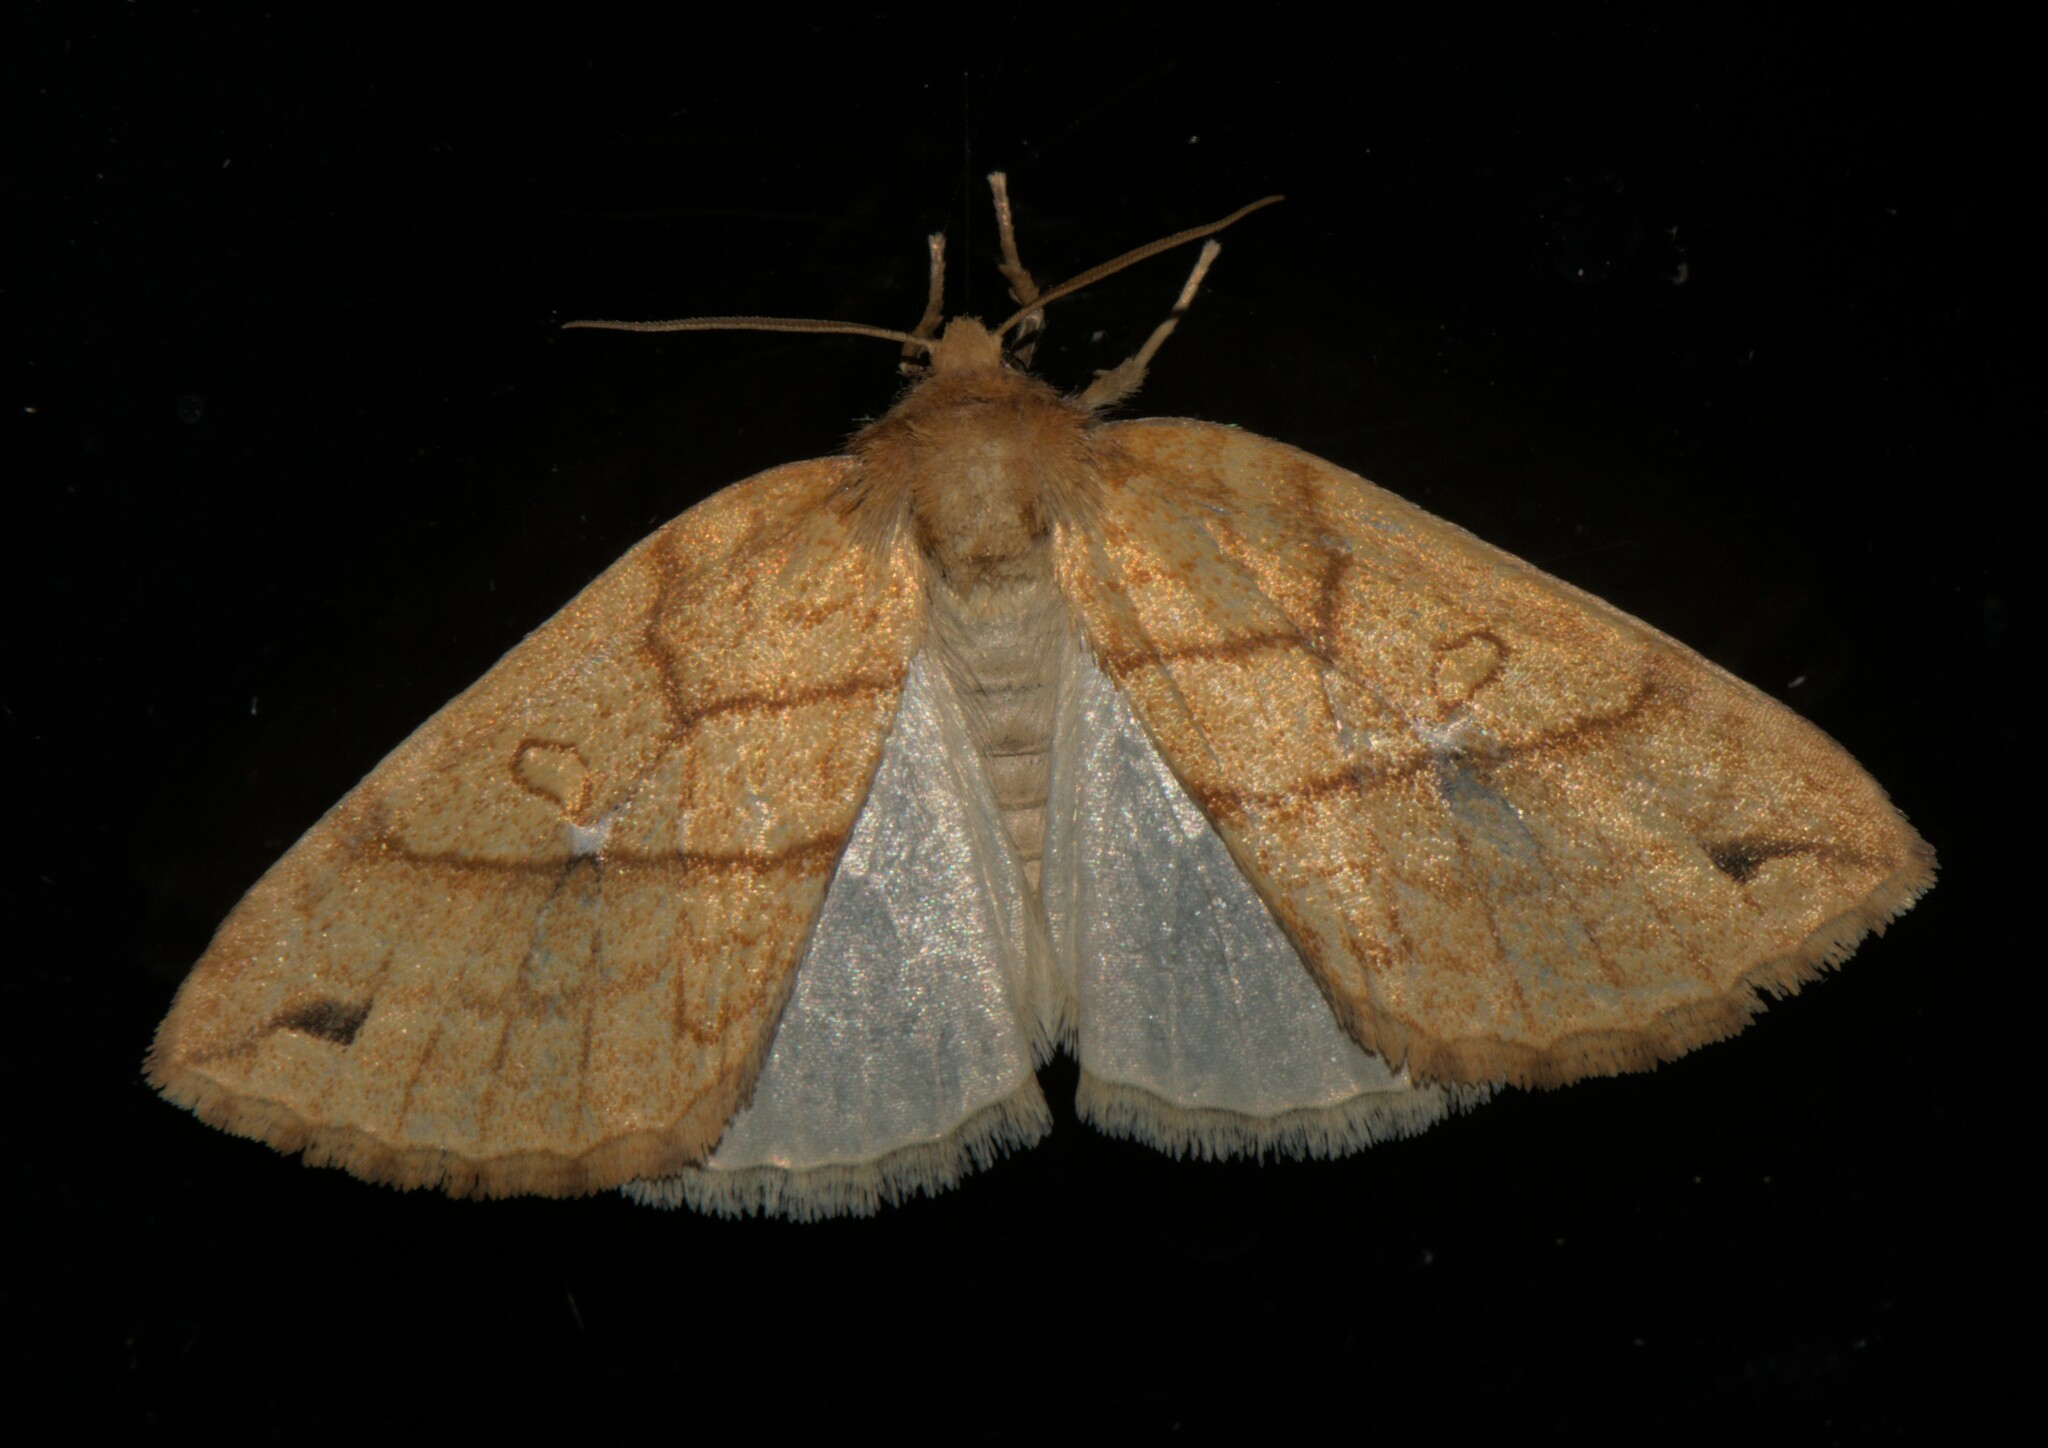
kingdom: Animalia
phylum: Arthropoda
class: Insecta
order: Lepidoptera
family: Noctuidae
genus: Xanthia
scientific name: Xanthia rectilineata
